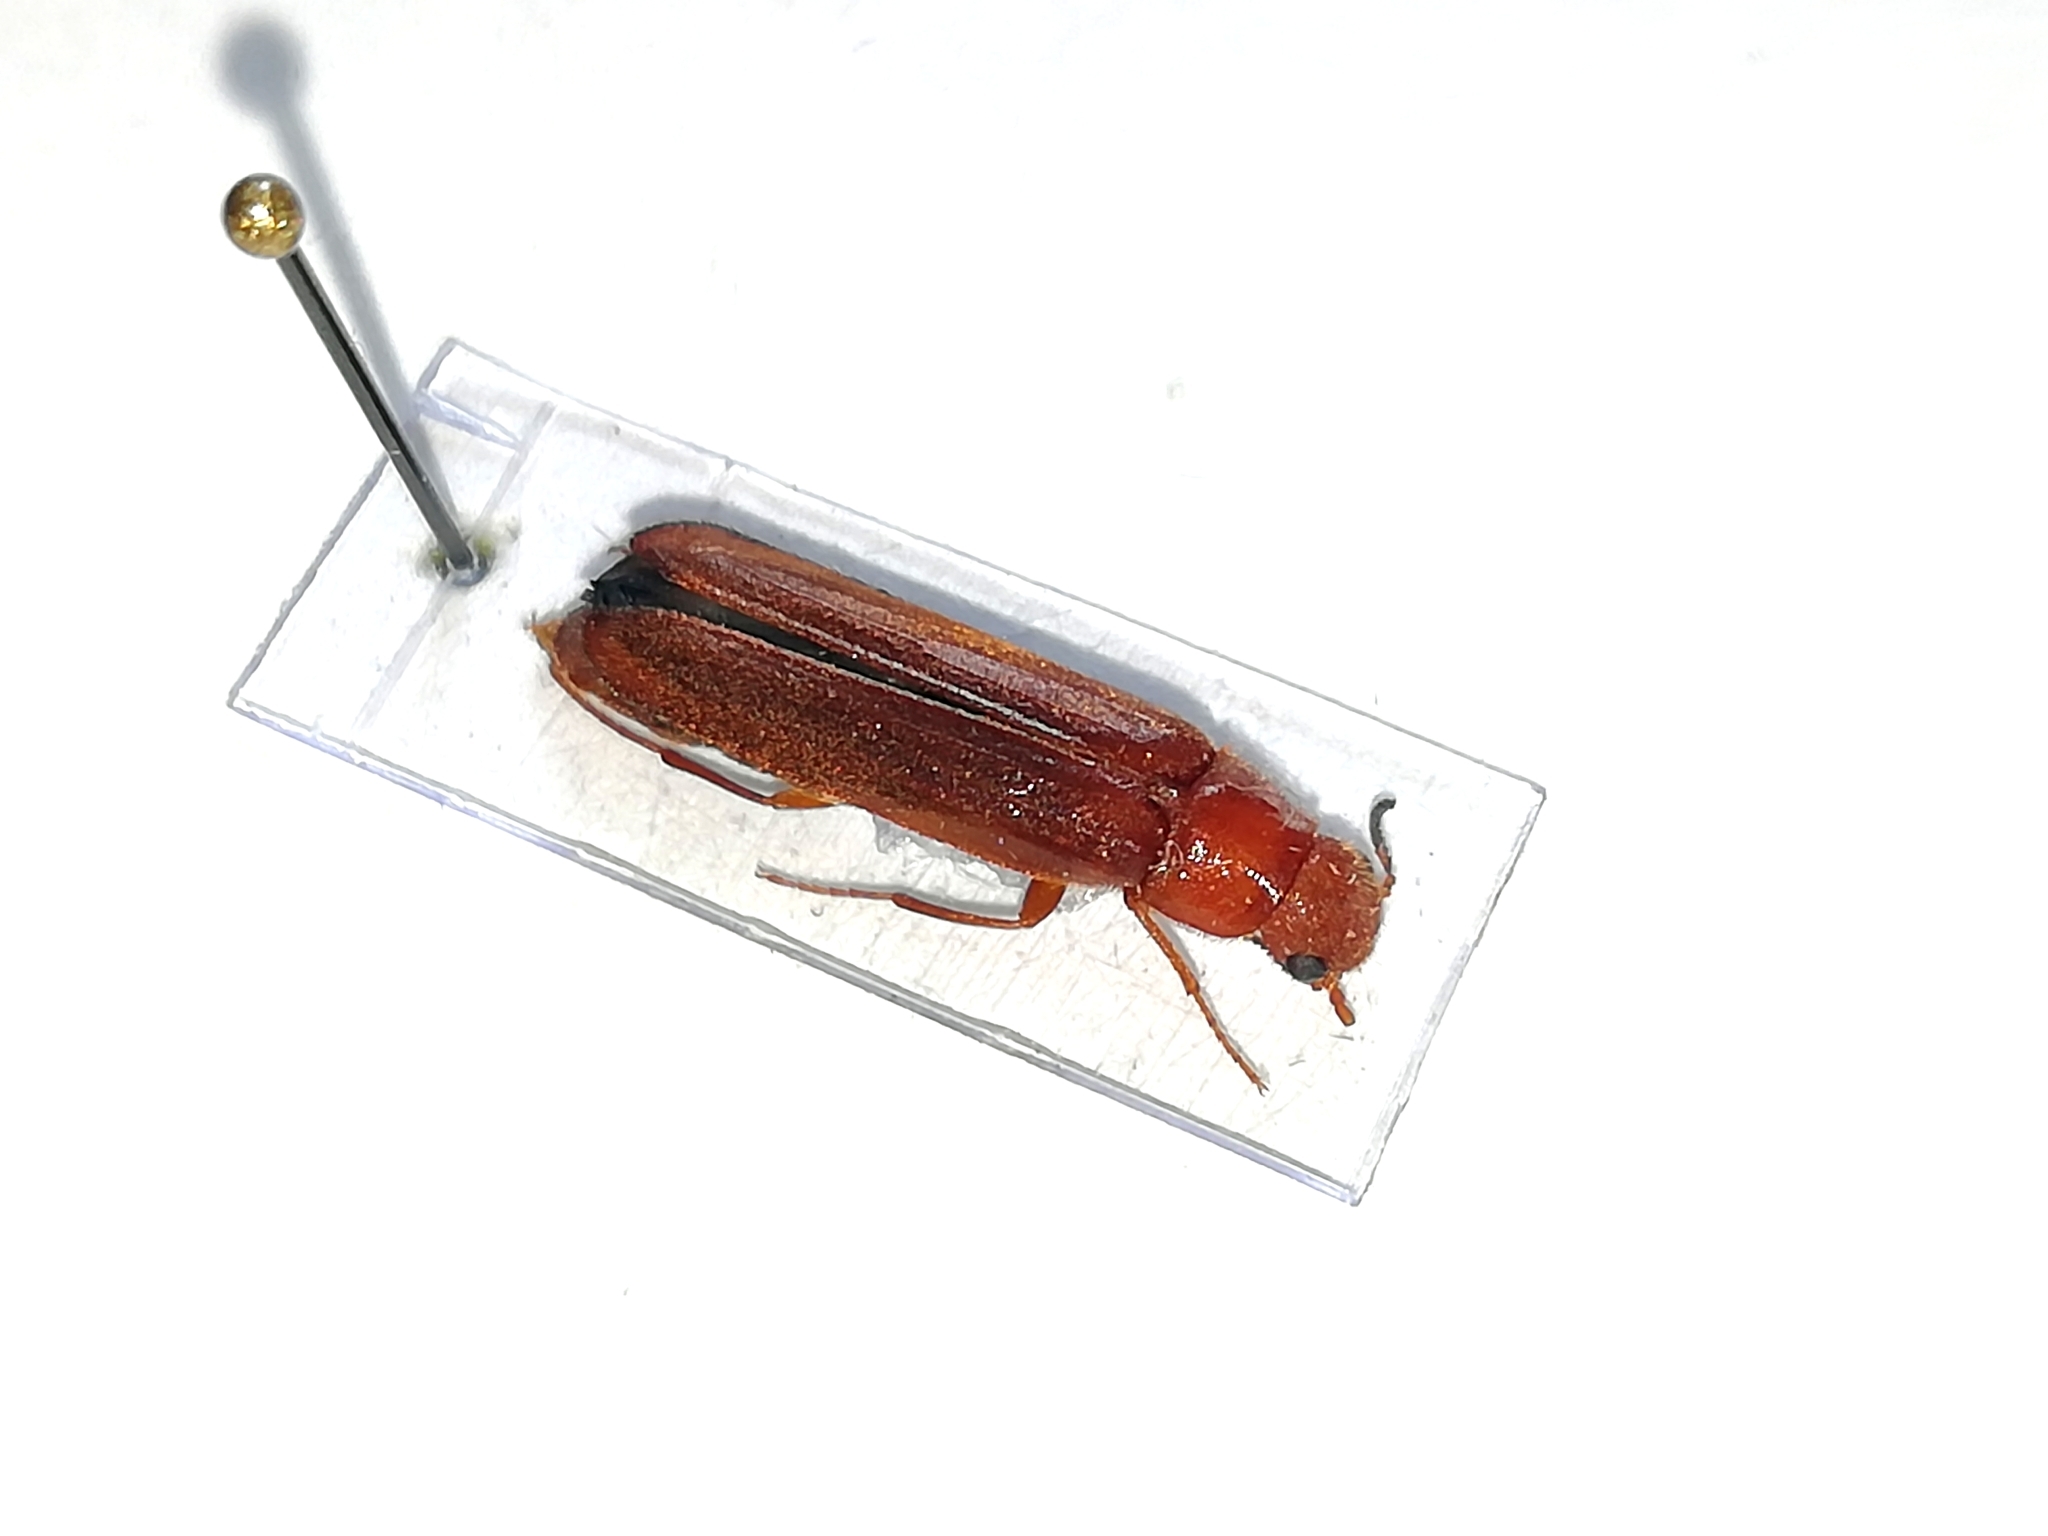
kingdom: Animalia
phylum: Arthropoda
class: Insecta
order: Coleoptera
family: Lymexylidae
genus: Hylecoetus
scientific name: Hylecoetus dermestoides
